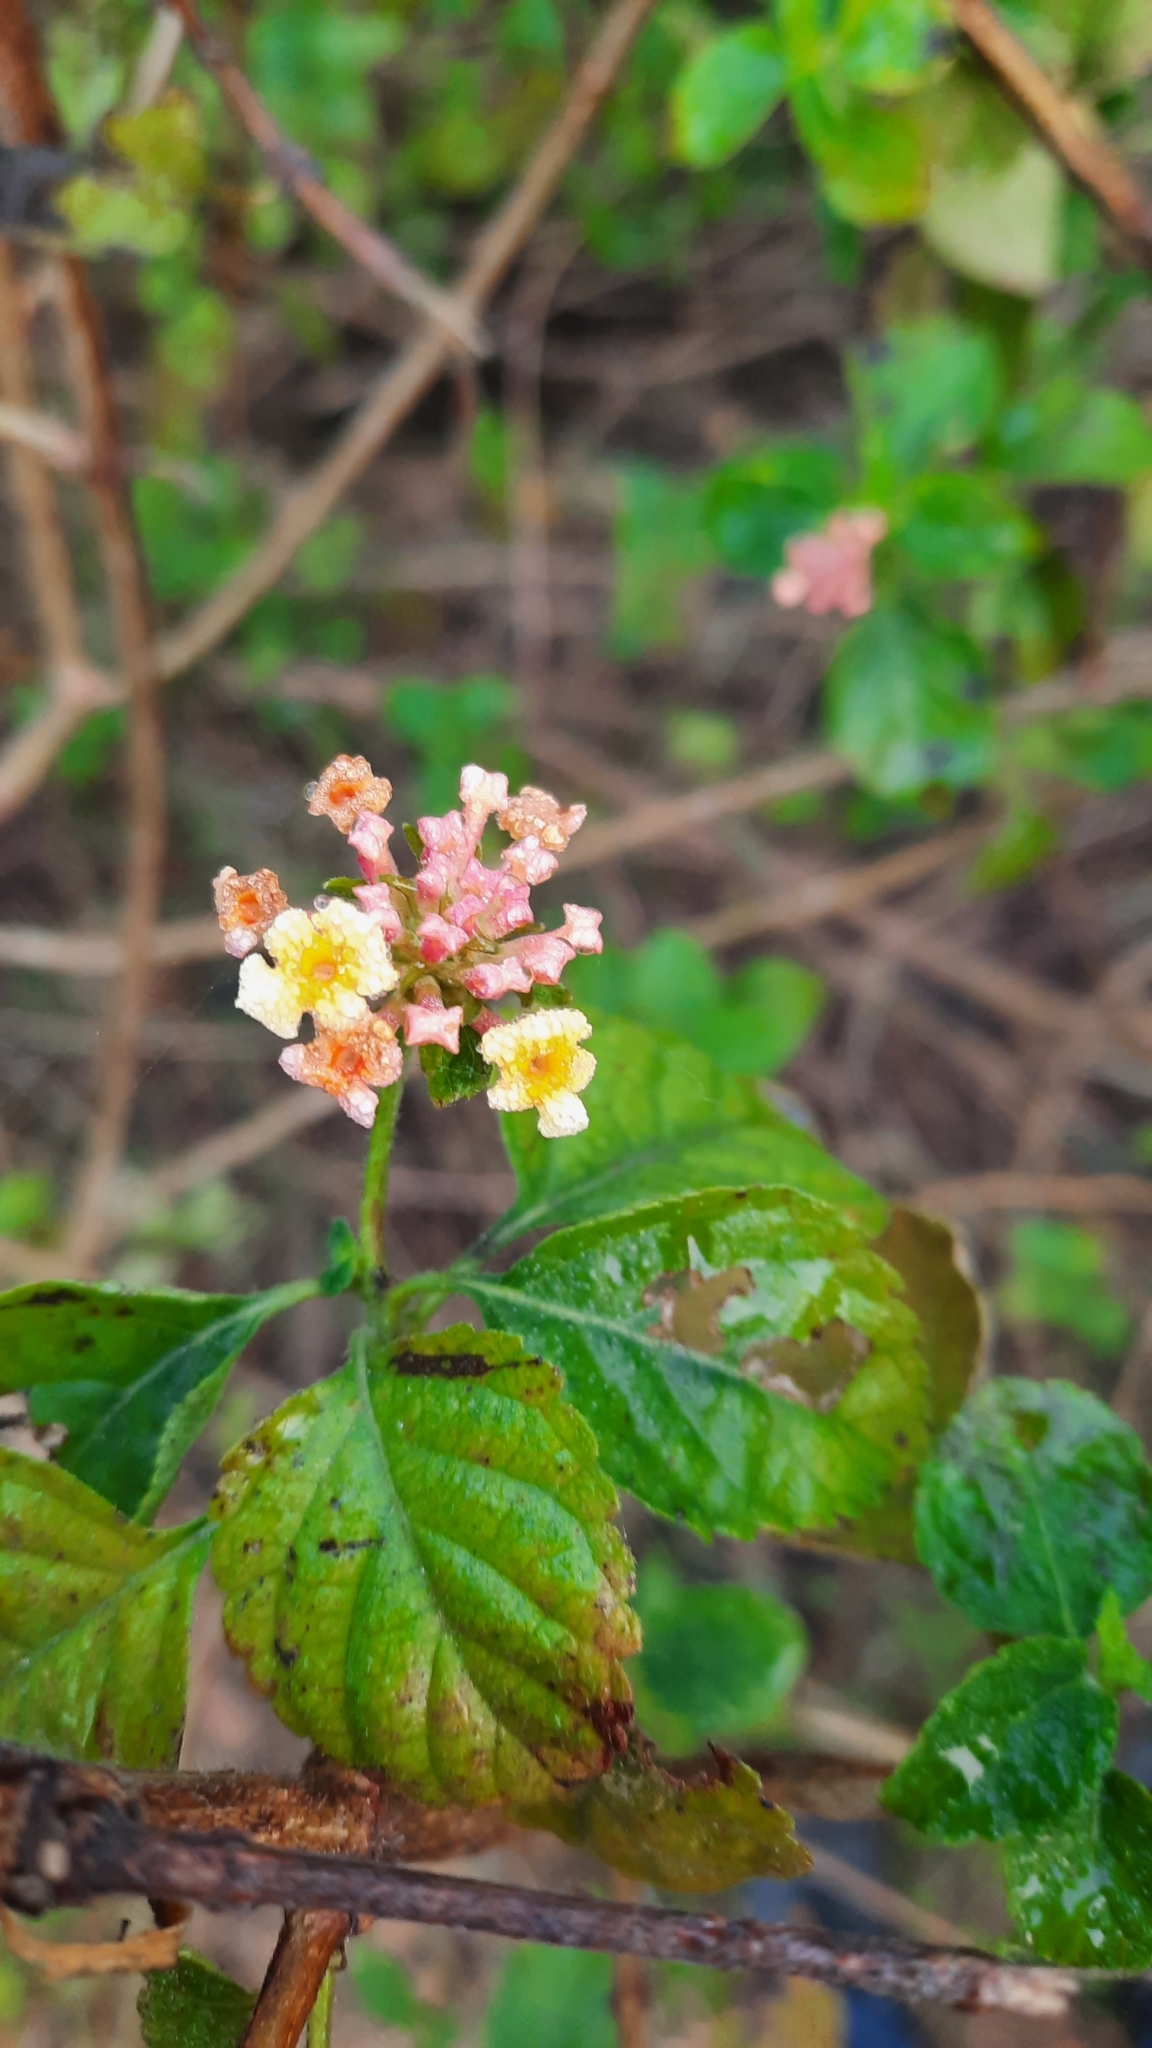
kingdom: Plantae
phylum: Tracheophyta
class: Magnoliopsida
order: Lamiales
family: Verbenaceae
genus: Lantana
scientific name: Lantana camara
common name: Lantana
